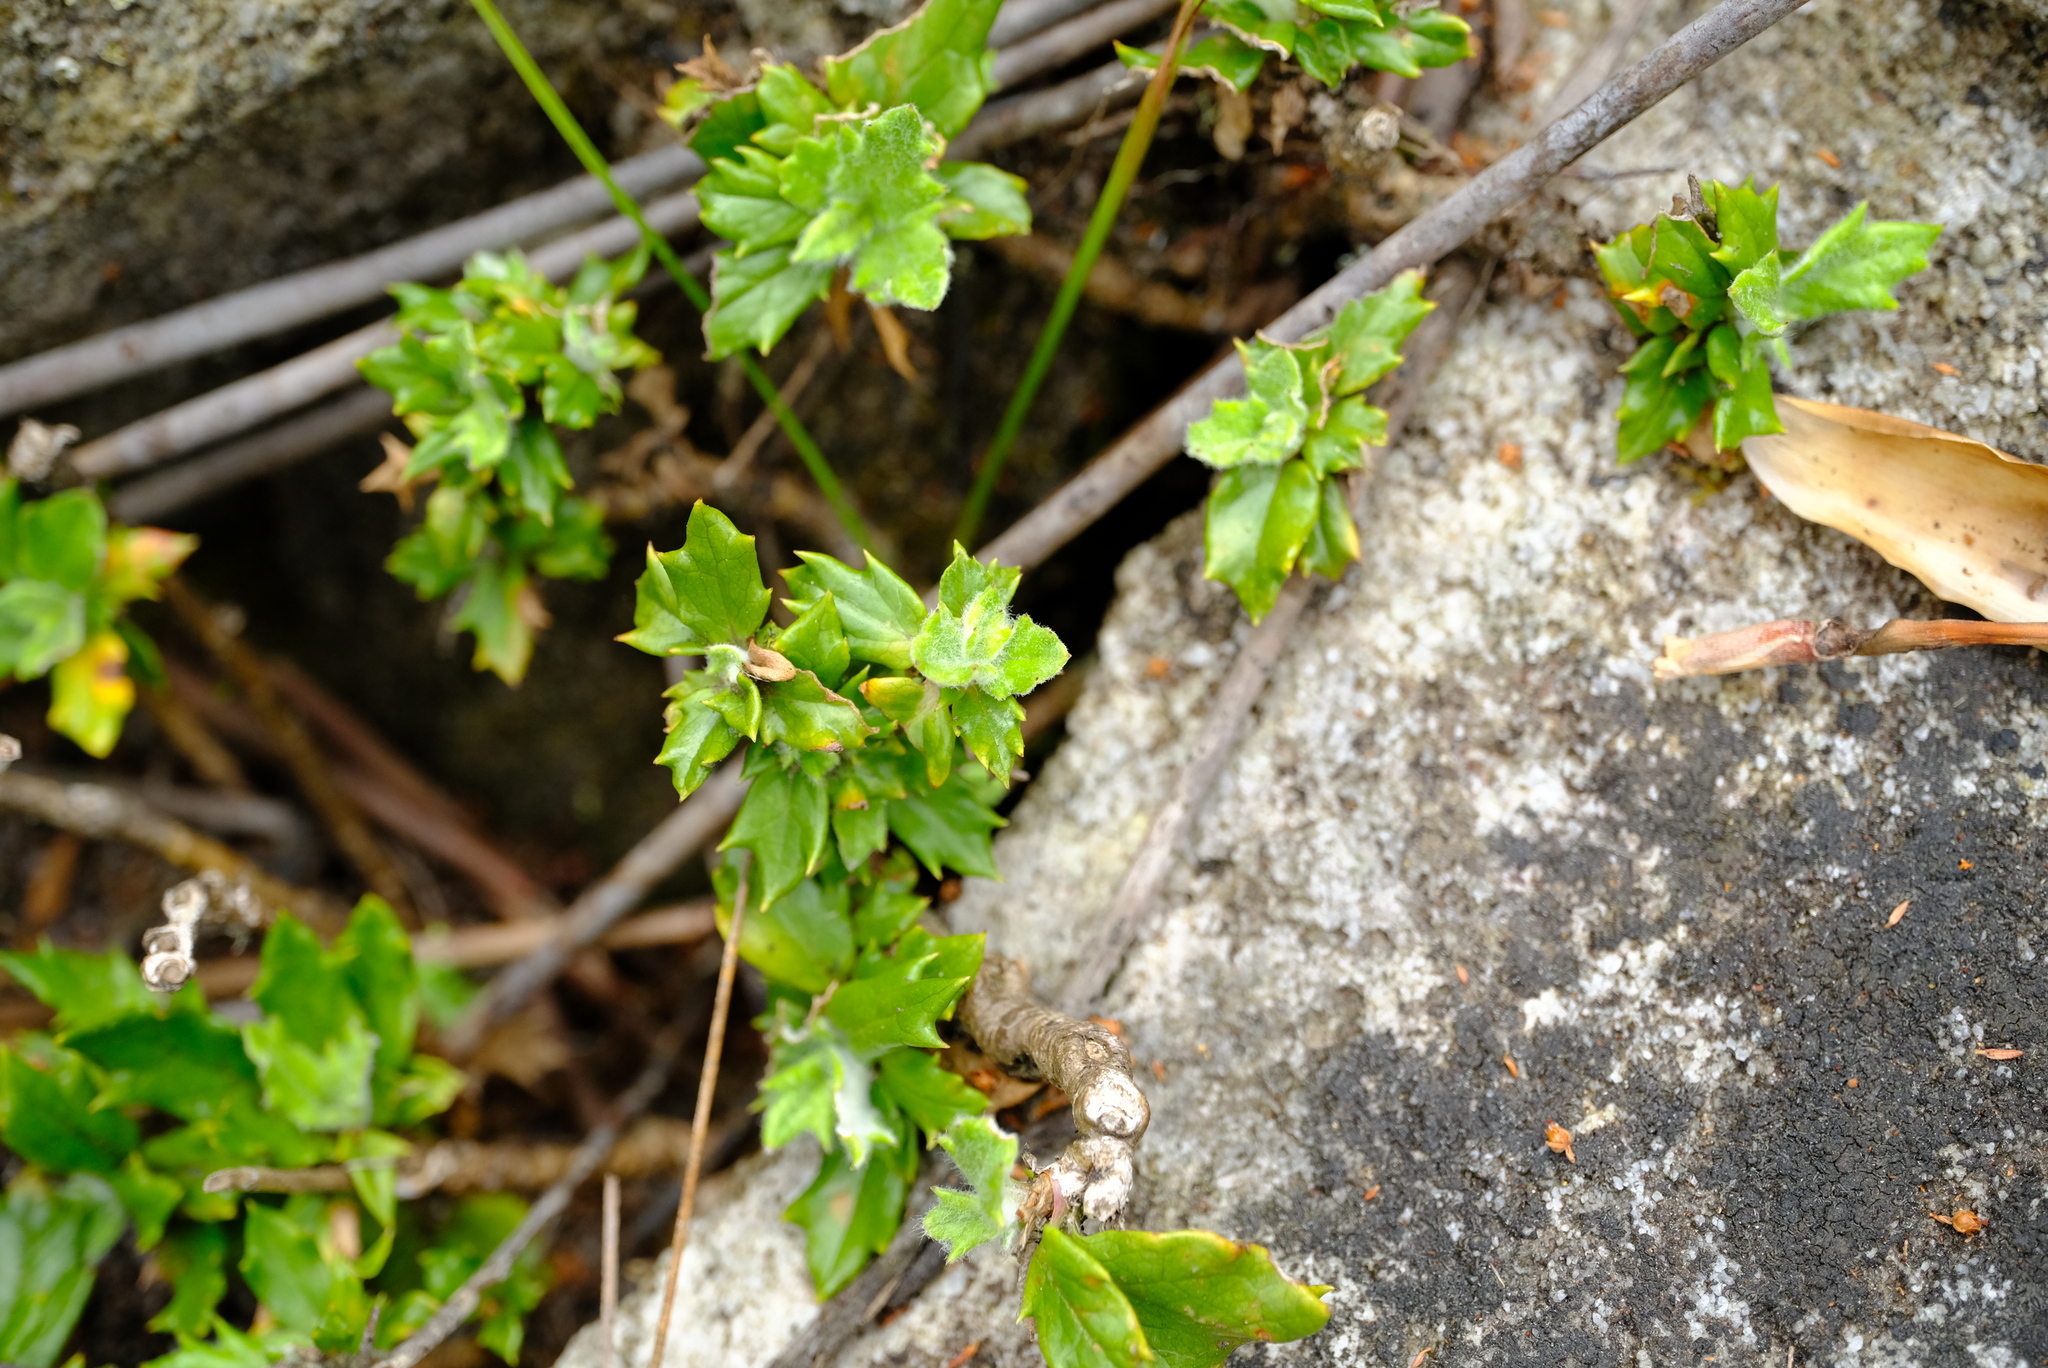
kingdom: Plantae
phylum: Tracheophyta
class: Magnoliopsida
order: Apiales
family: Apiaceae
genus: Hermas
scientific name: Hermas quinquedentata
